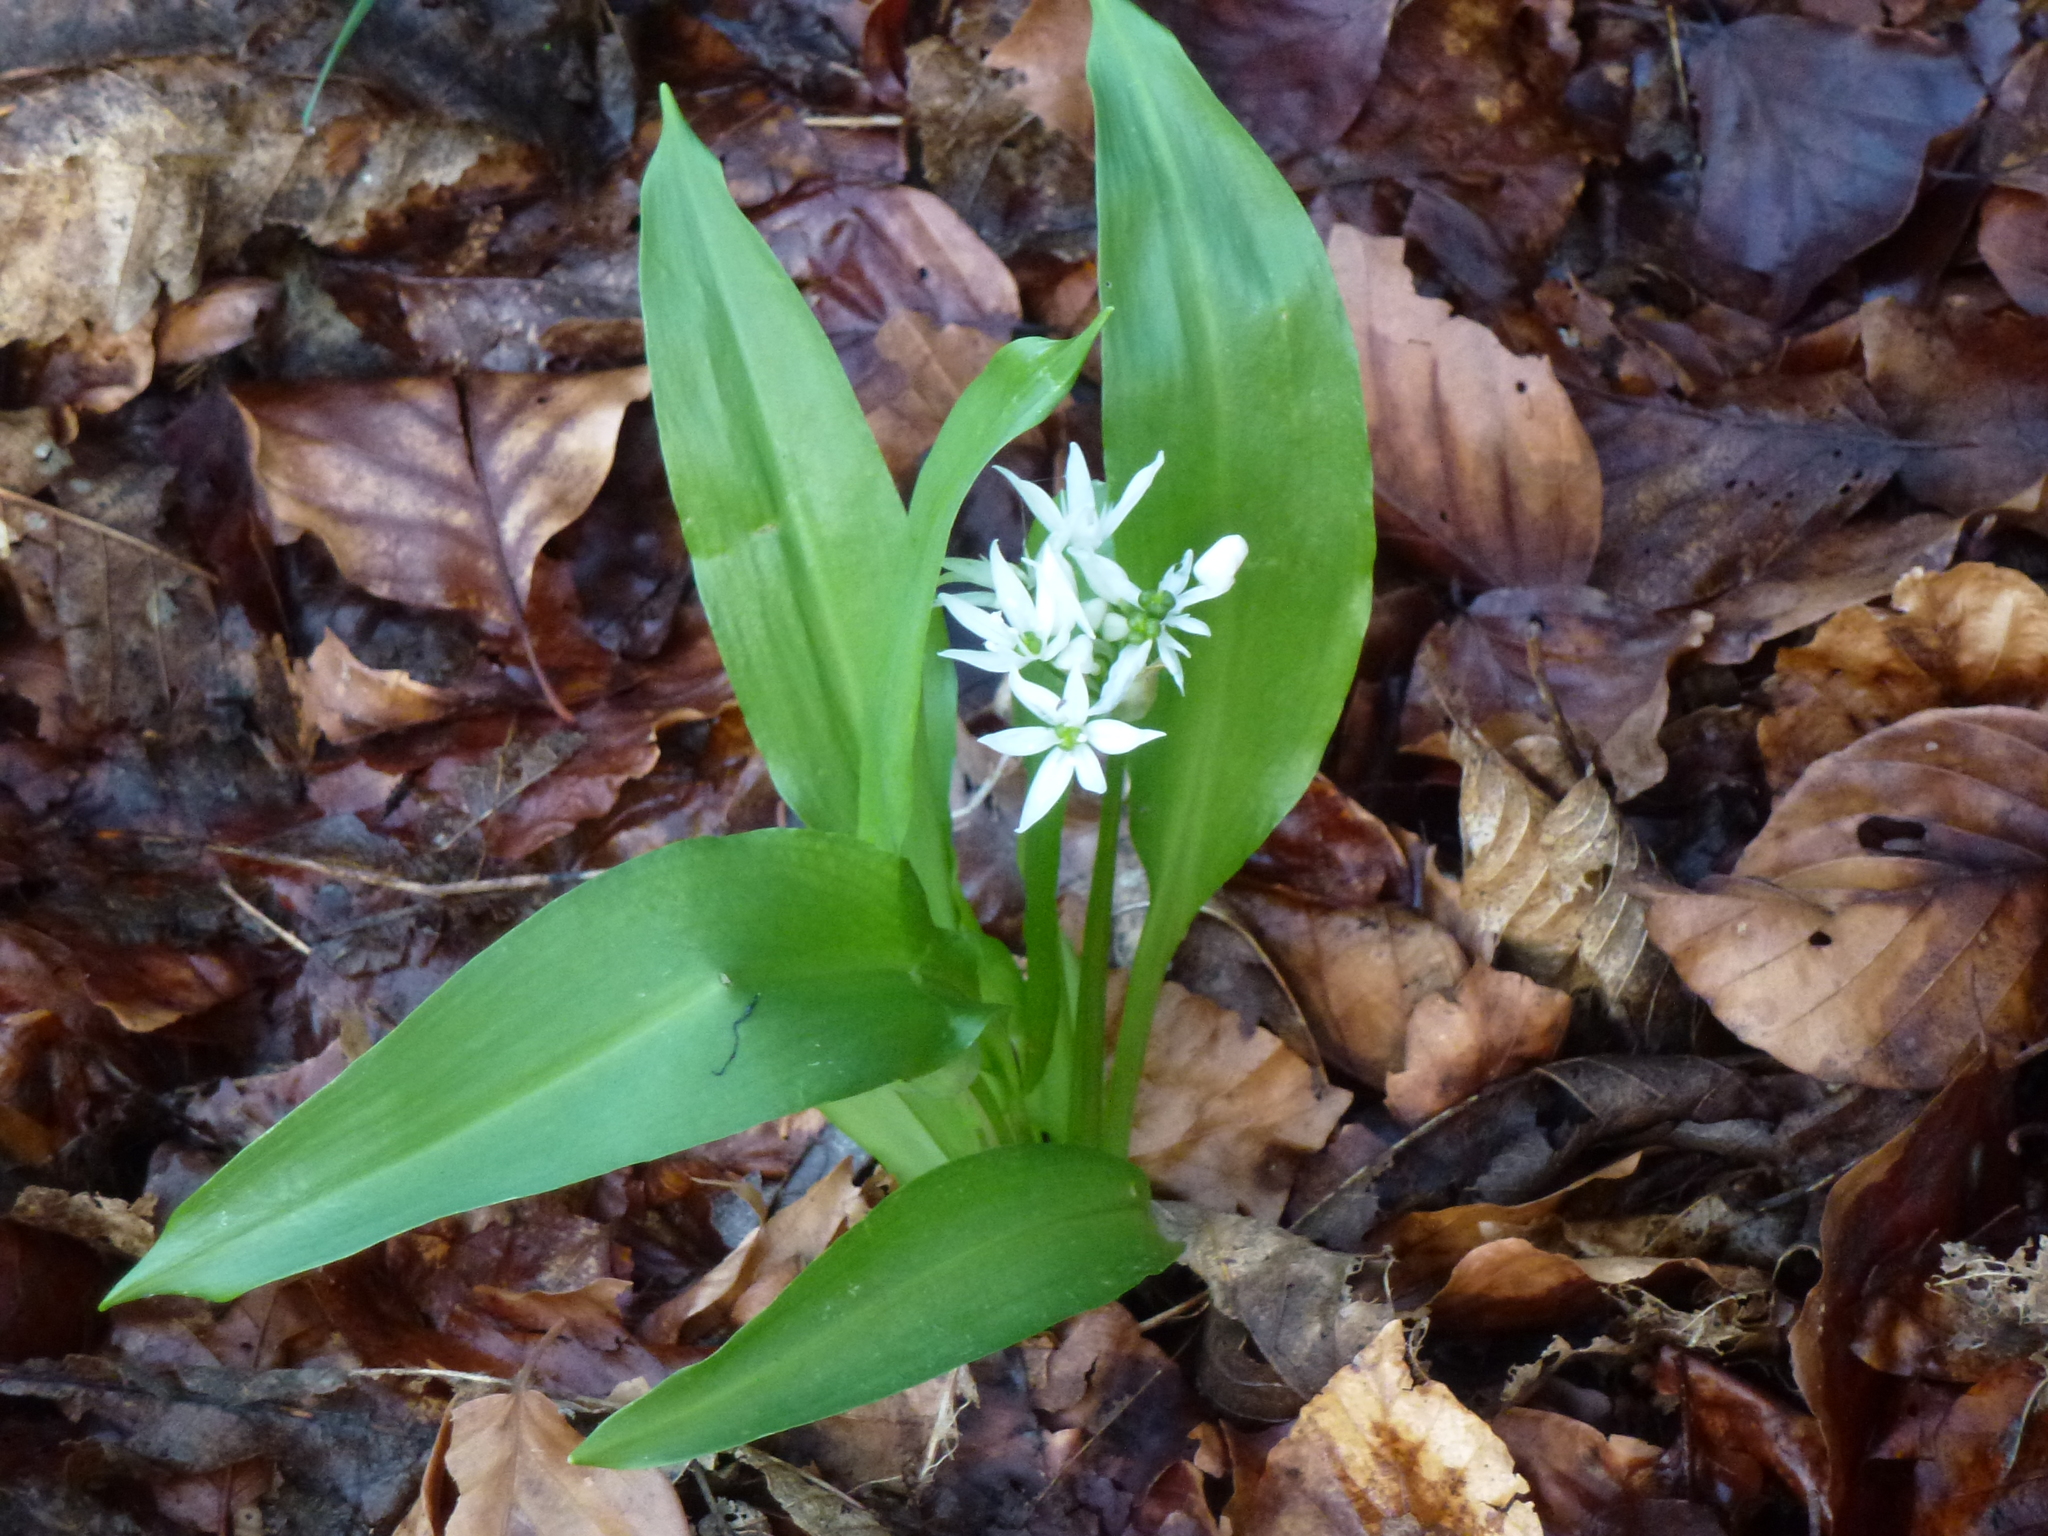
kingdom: Plantae
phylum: Tracheophyta
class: Liliopsida
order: Asparagales
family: Amaryllidaceae
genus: Allium
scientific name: Allium ursinum
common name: Ramsons
